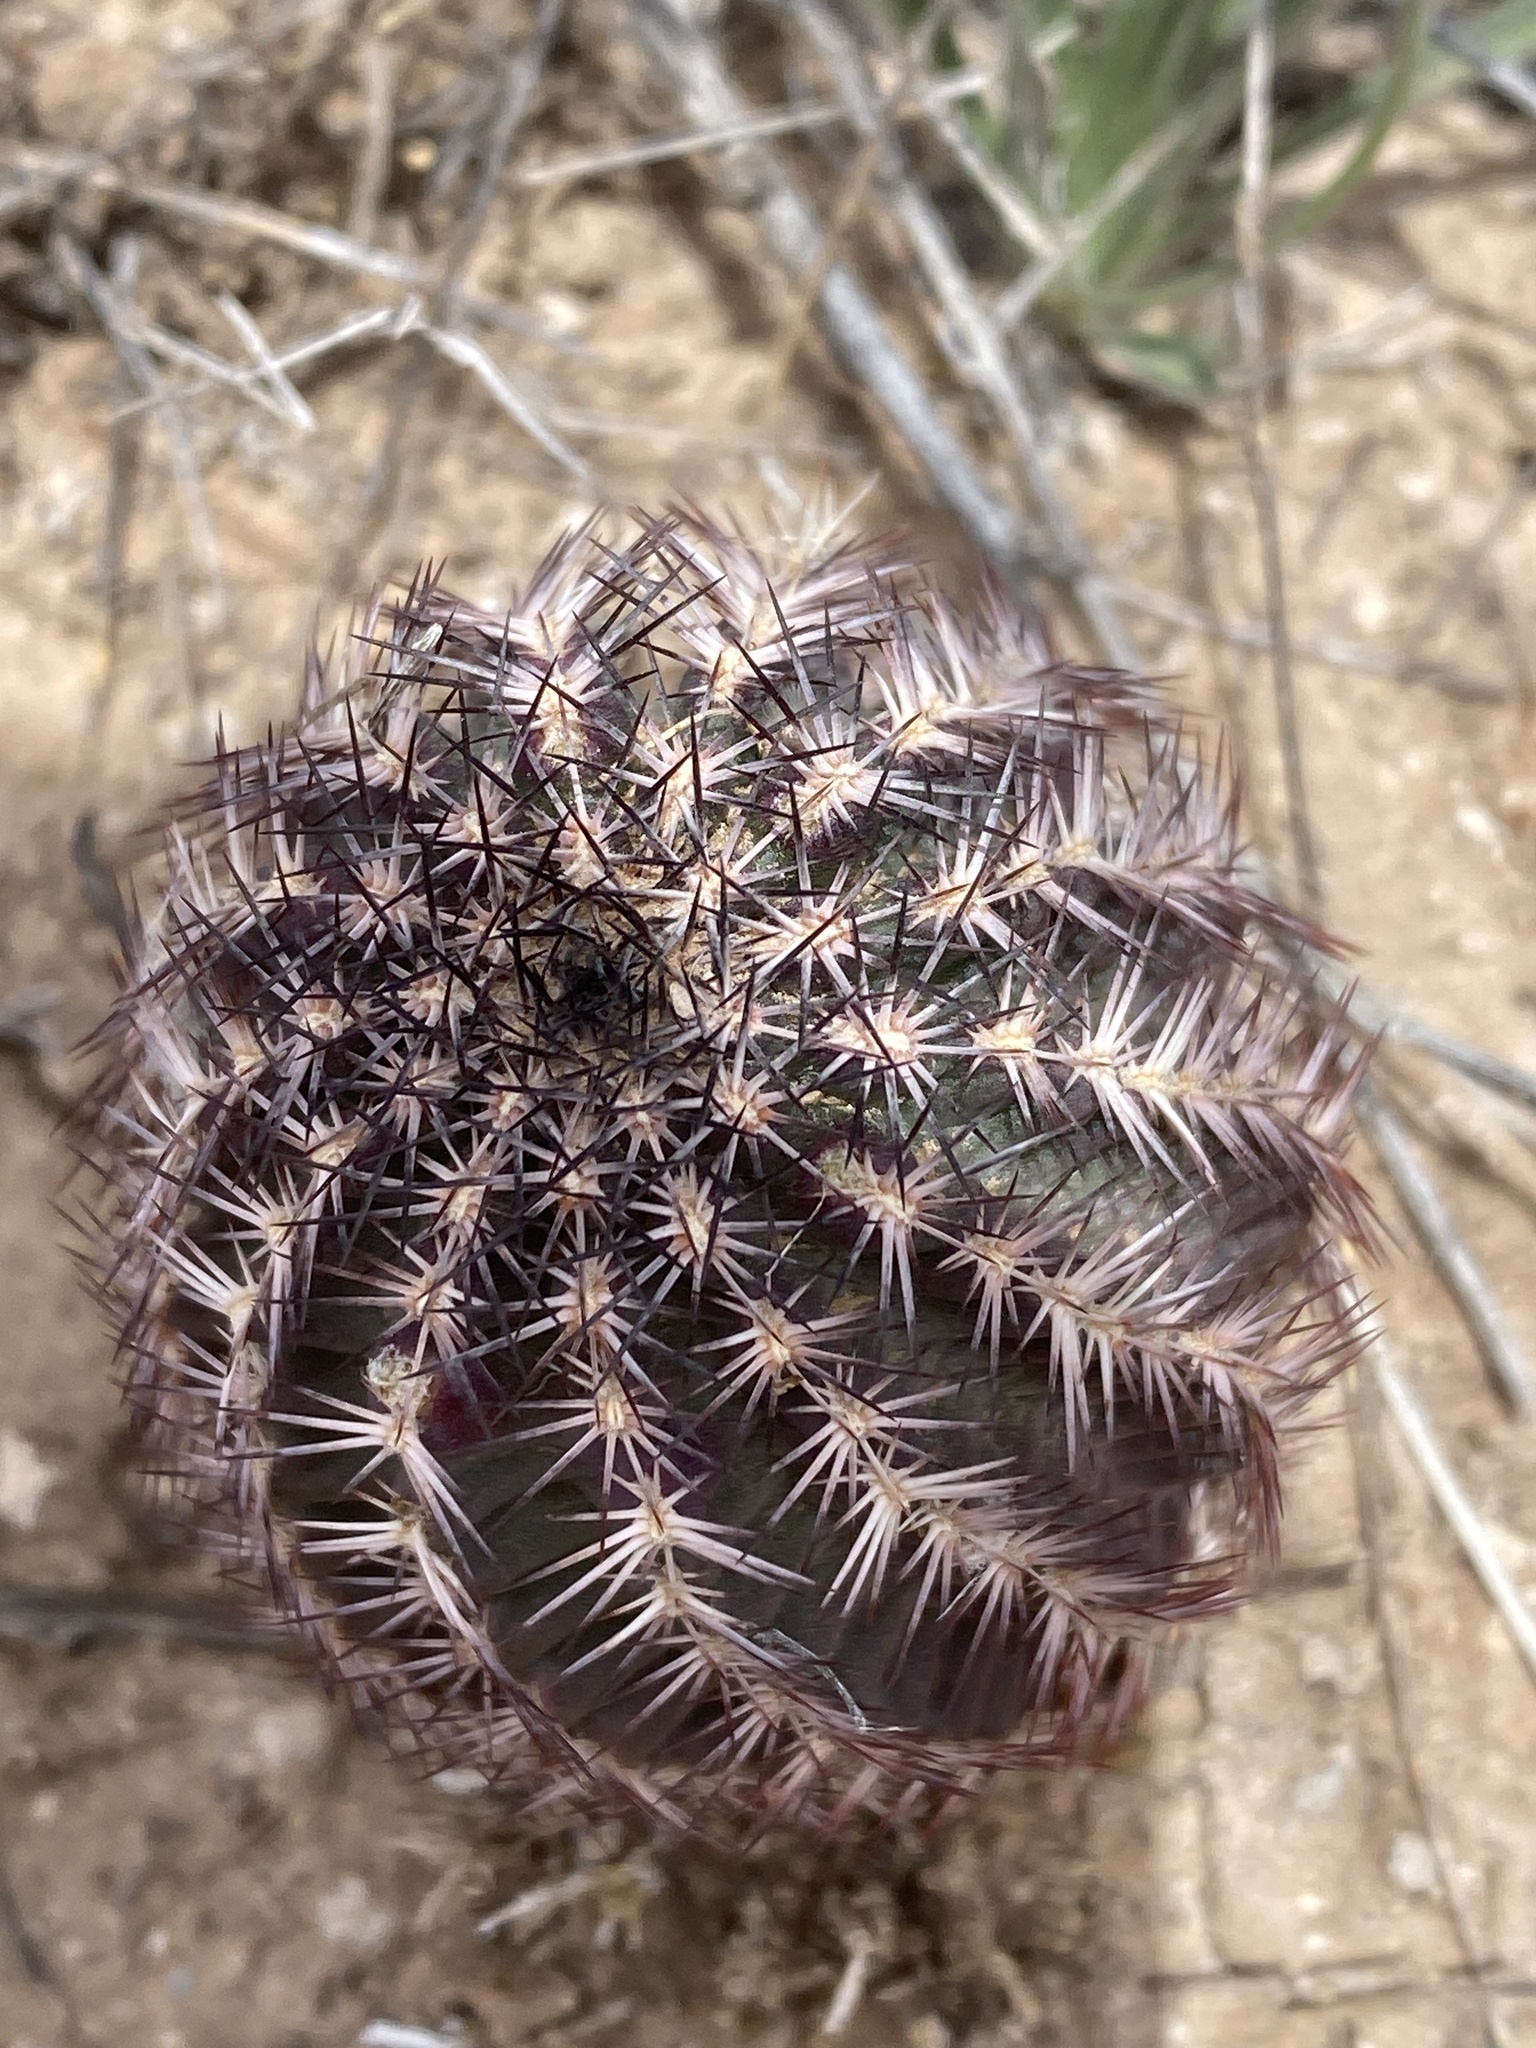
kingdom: Plantae
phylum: Tracheophyta
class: Magnoliopsida
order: Caryophyllales
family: Cactaceae
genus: Echinocereus
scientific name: Echinocereus reichenbachii
